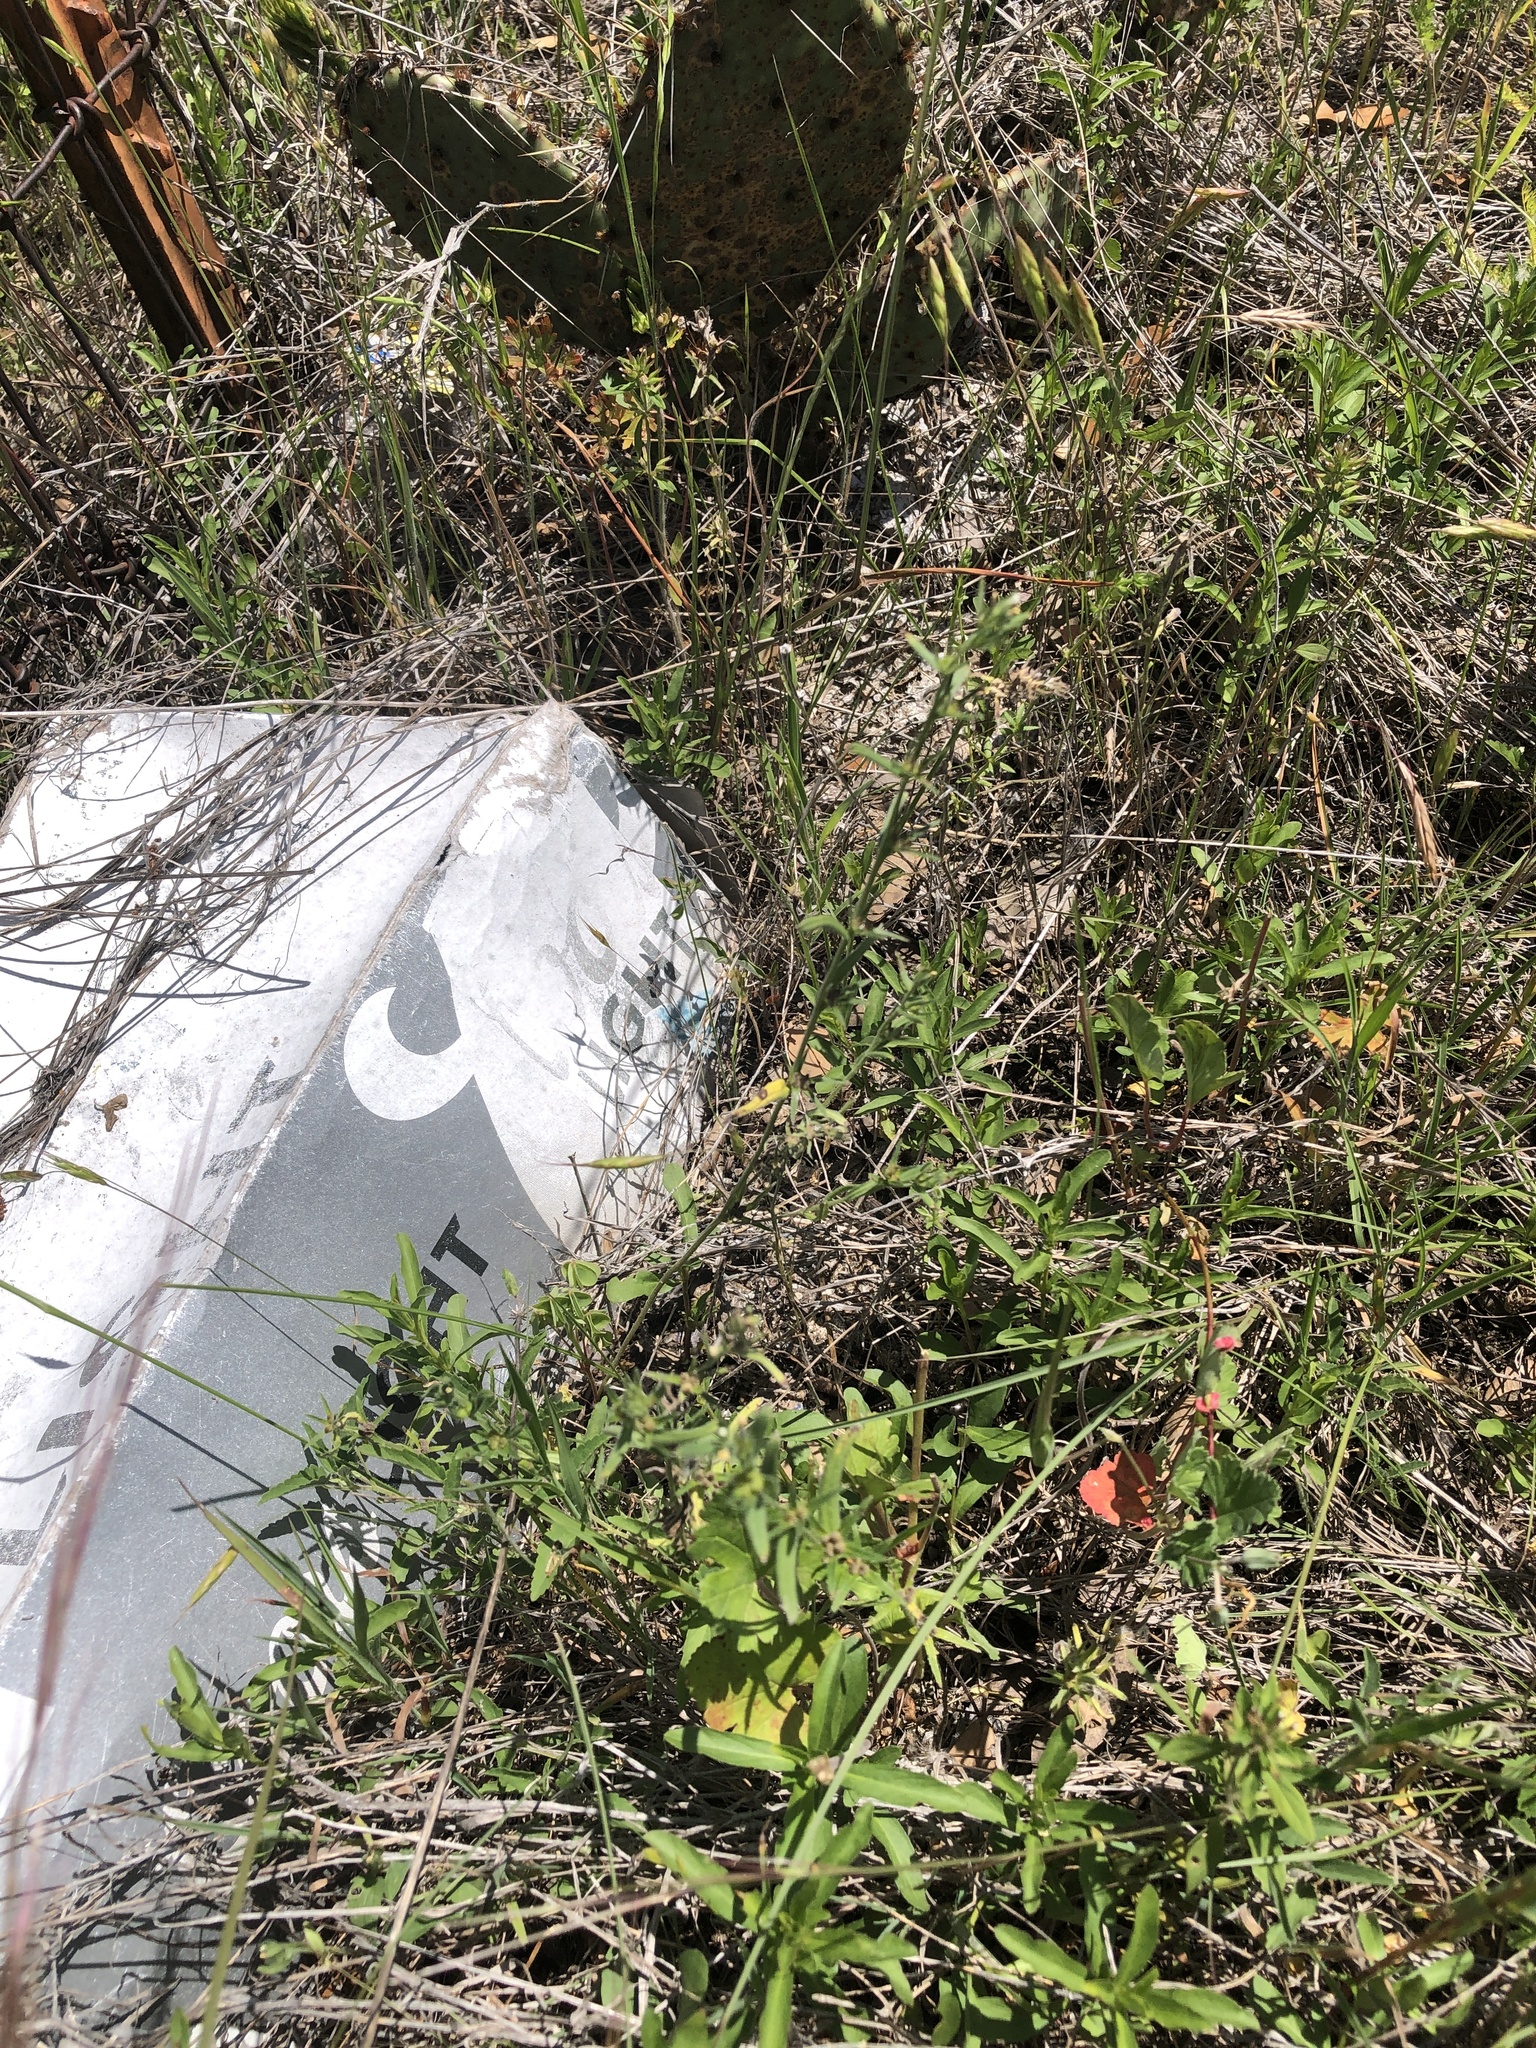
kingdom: Plantae
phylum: Tracheophyta
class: Magnoliopsida
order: Boraginales
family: Boraginaceae
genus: Buglossoides
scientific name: Buglossoides arvensis
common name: Corn gromwell
